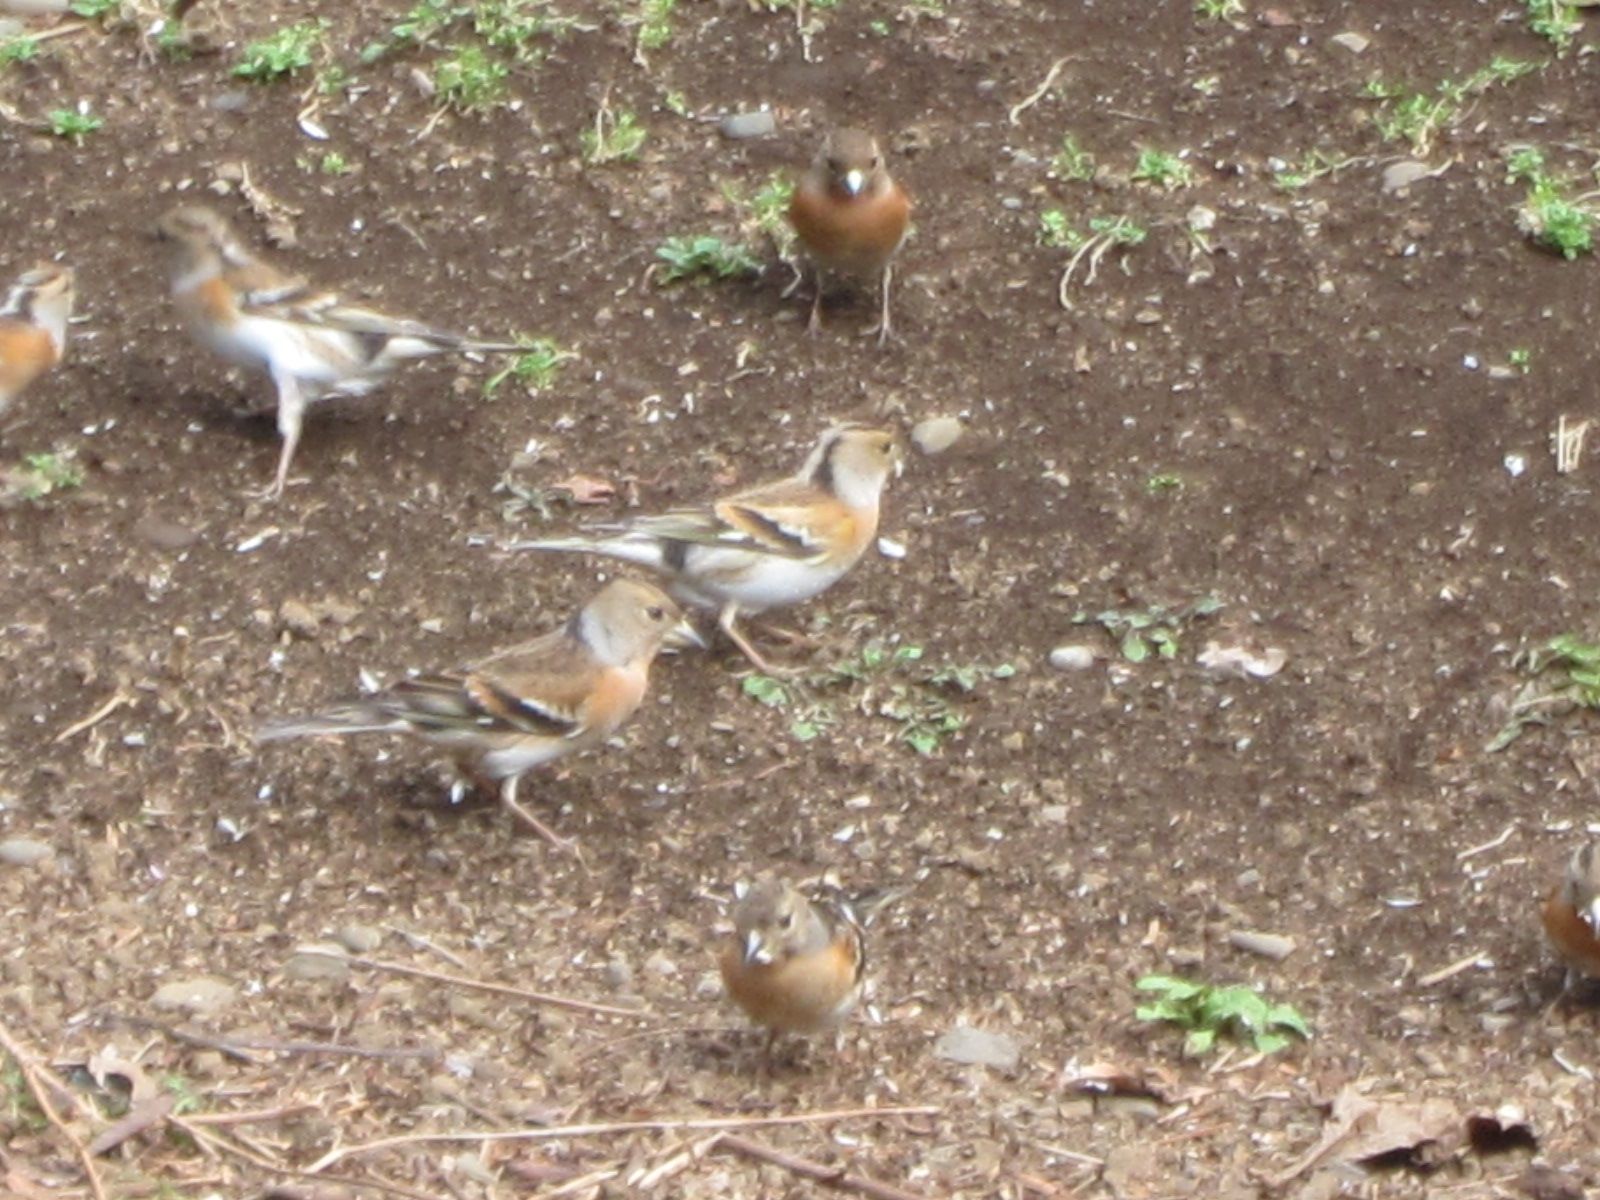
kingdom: Animalia
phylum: Chordata
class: Aves
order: Passeriformes
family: Fringillidae
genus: Fringilla
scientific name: Fringilla montifringilla
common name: Brambling
